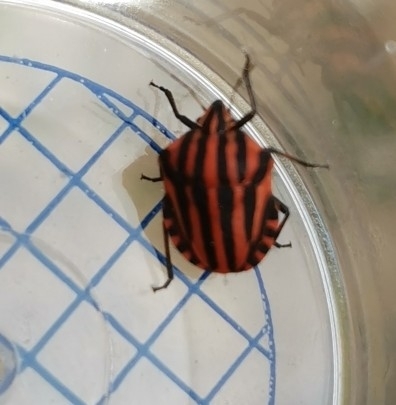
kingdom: Animalia
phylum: Arthropoda
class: Insecta
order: Hemiptera
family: Pentatomidae
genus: Graphosoma
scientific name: Graphosoma italicum
